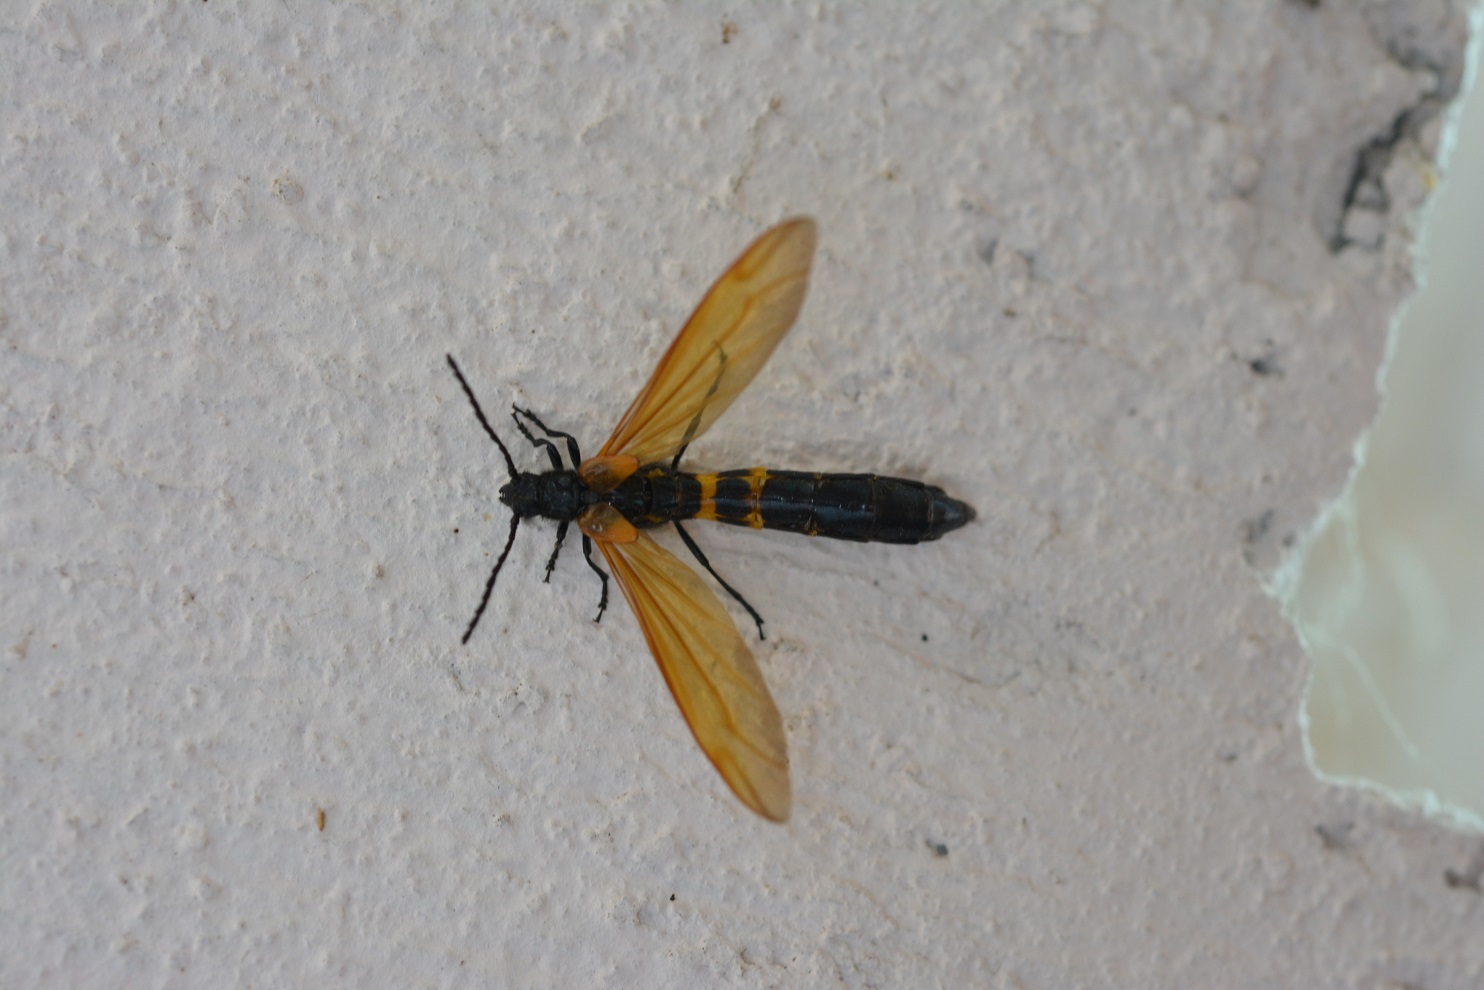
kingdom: Animalia
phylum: Arthropoda
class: Insecta
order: Coleoptera
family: Cerambycidae
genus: Rhathymoscelis
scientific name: Rhathymoscelis batesi
